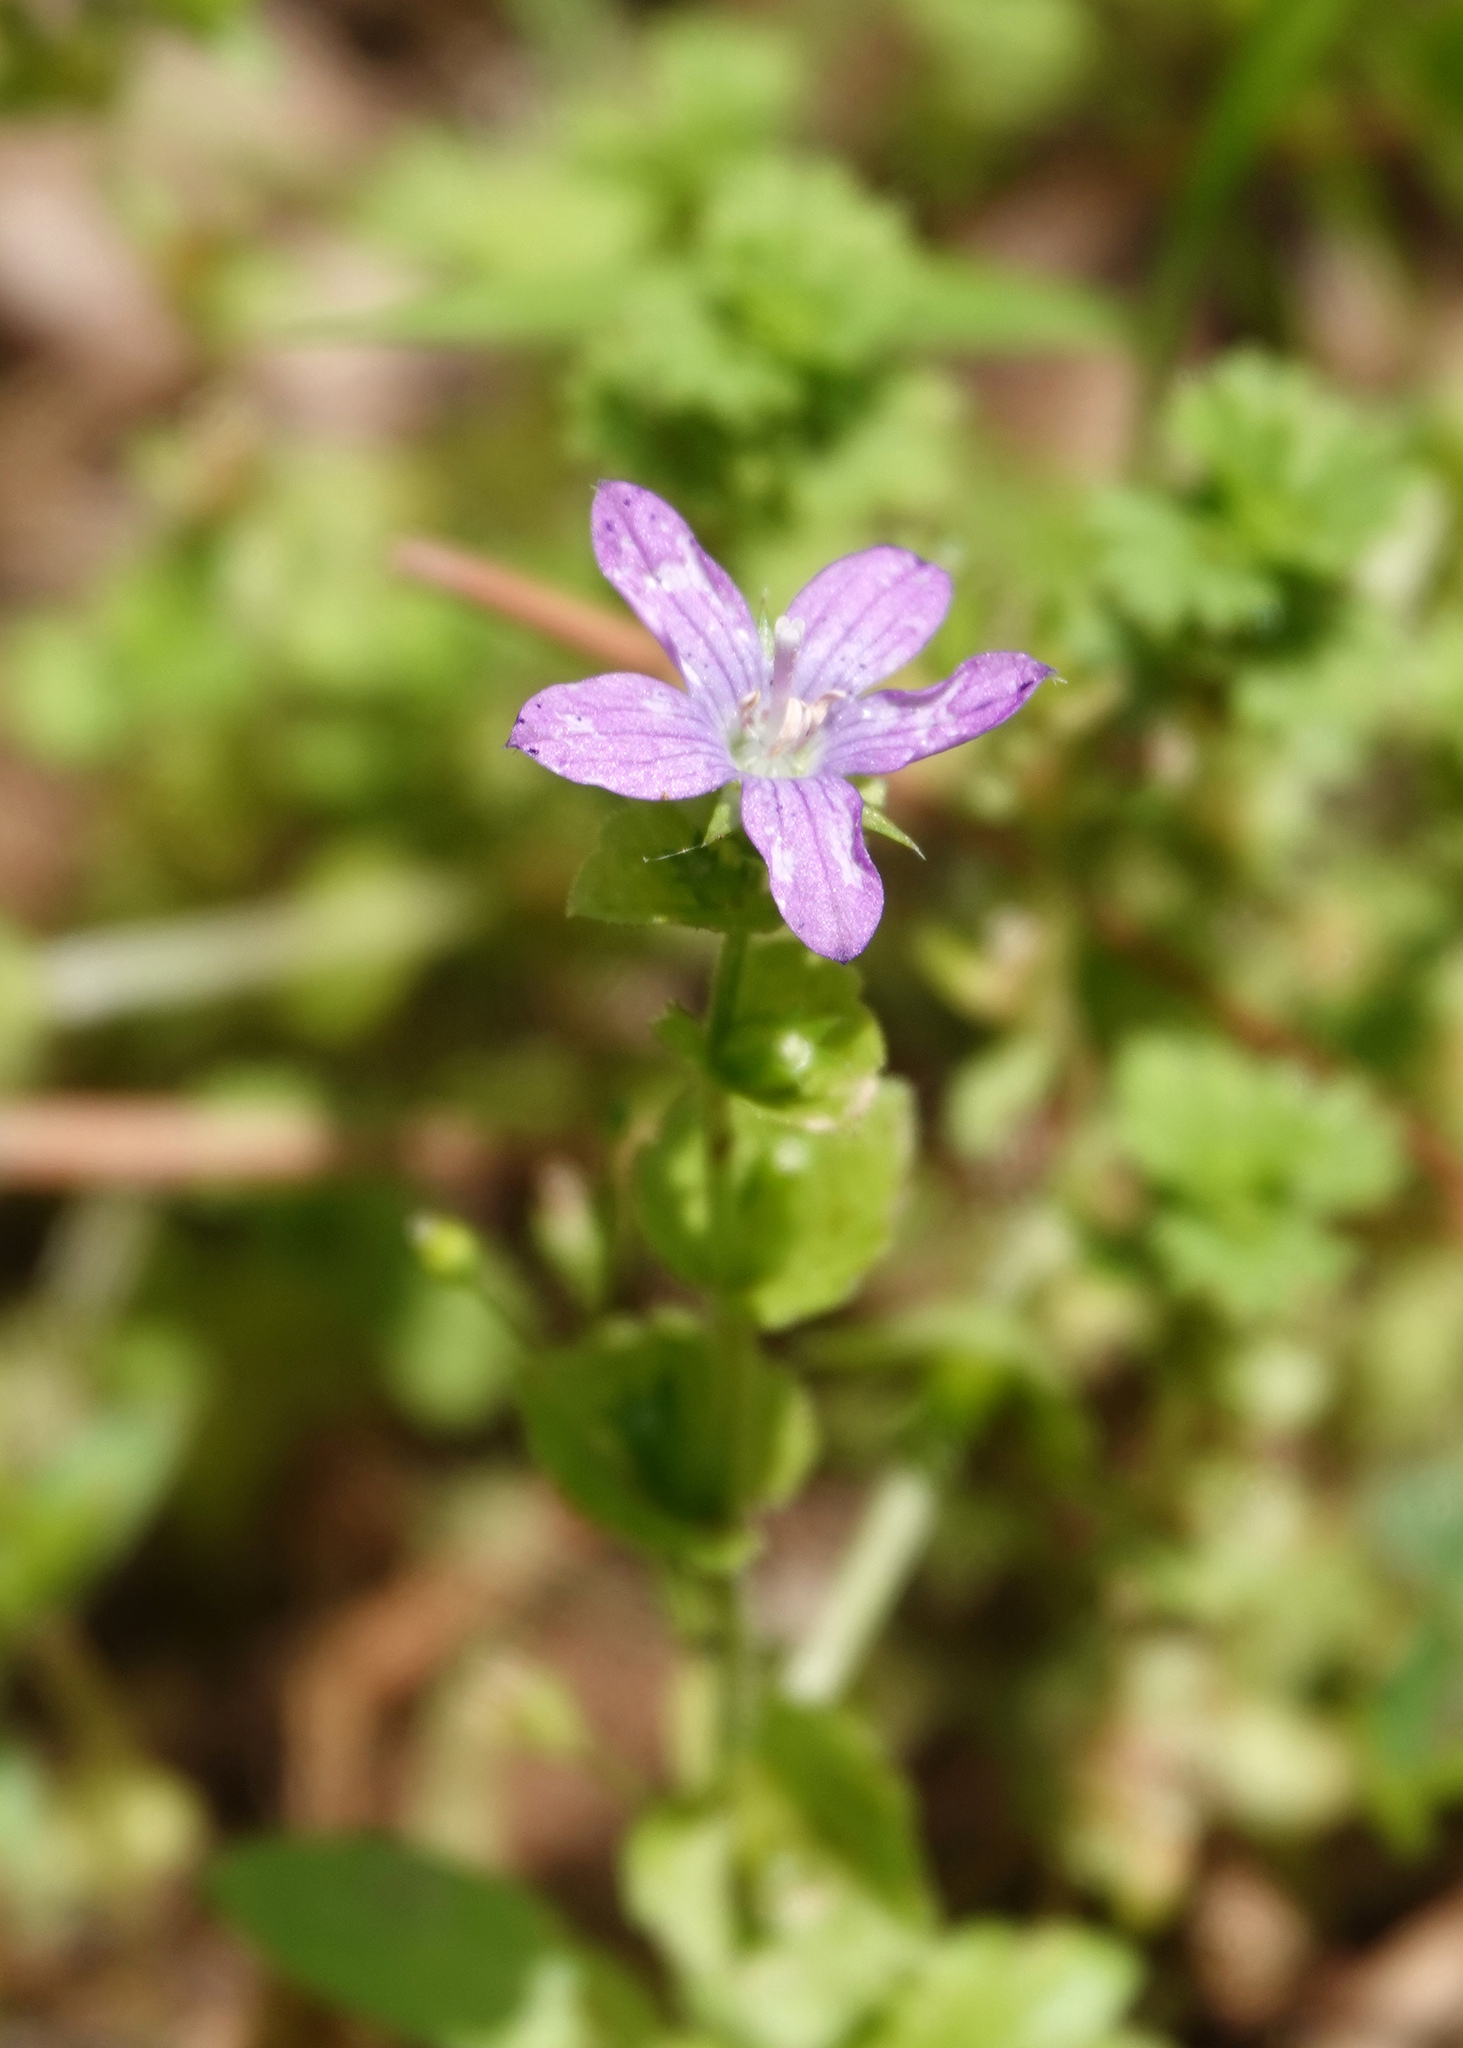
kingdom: Plantae
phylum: Tracheophyta
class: Magnoliopsida
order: Asterales
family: Campanulaceae
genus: Triodanis
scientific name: Triodanis perfoliata
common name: Clasping venus' looking-glass
